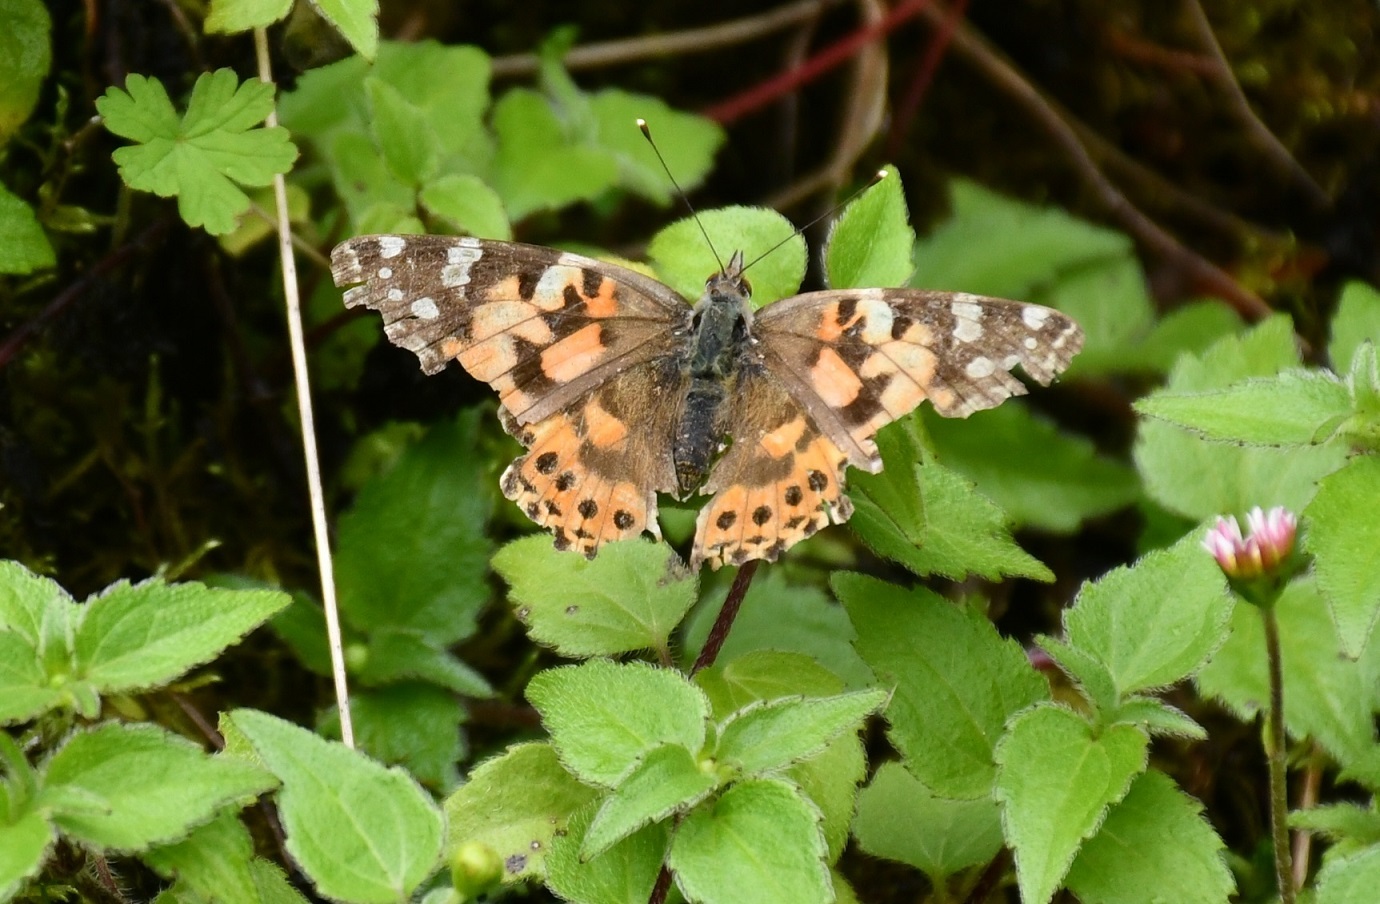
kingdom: Animalia
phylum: Arthropoda
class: Insecta
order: Lepidoptera
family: Nymphalidae
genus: Vanessa
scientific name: Vanessa cardui
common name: Painted lady
